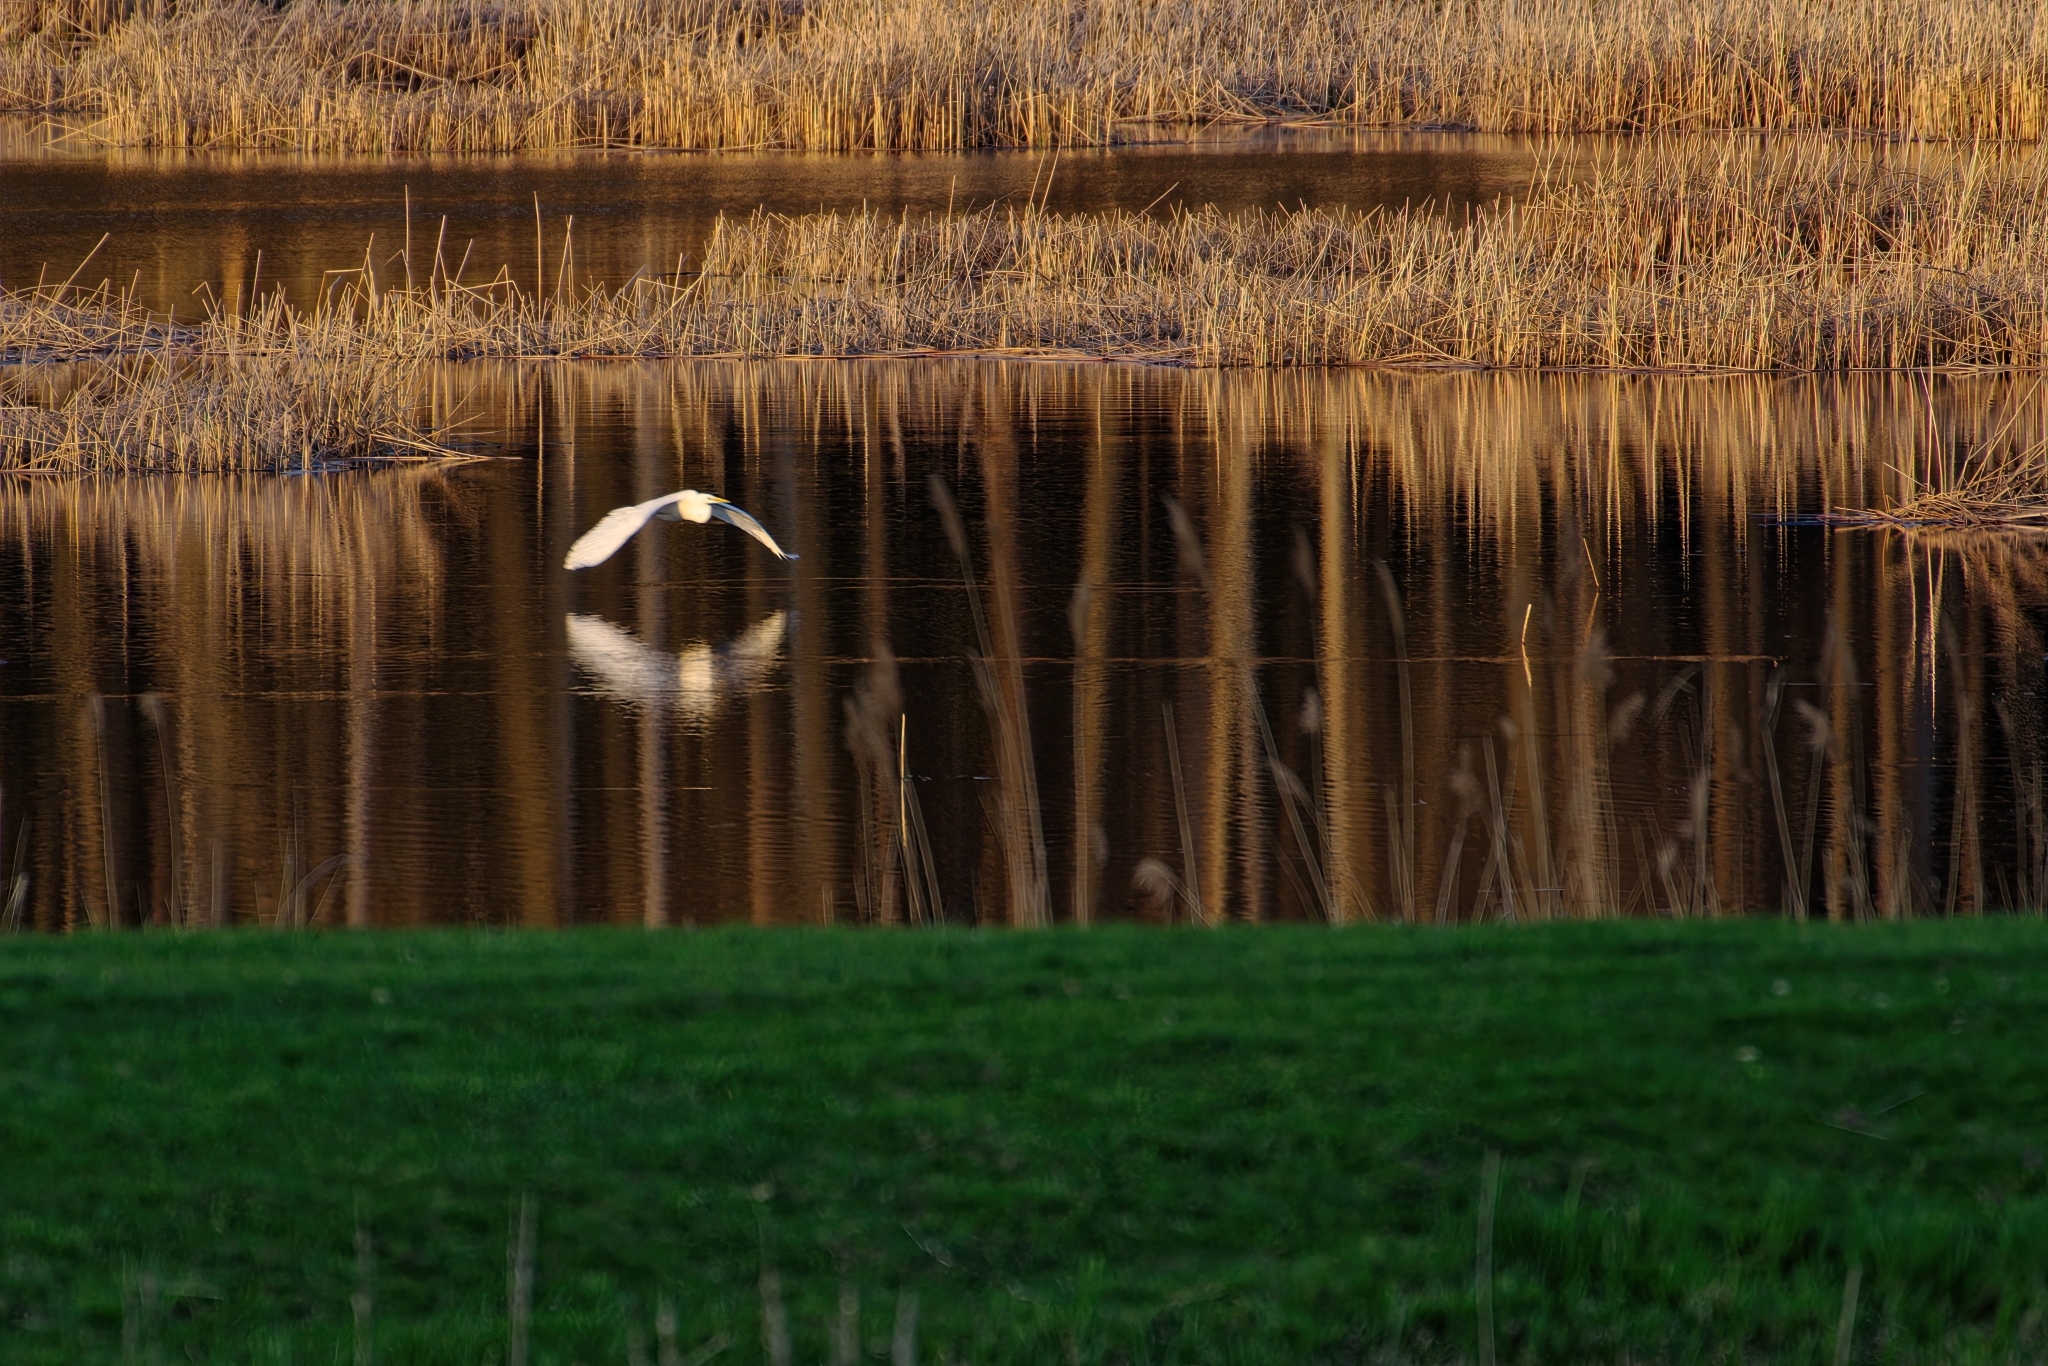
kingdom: Animalia
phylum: Chordata
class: Aves
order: Pelecaniformes
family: Ardeidae
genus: Ardea
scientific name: Ardea alba
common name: Great egret
